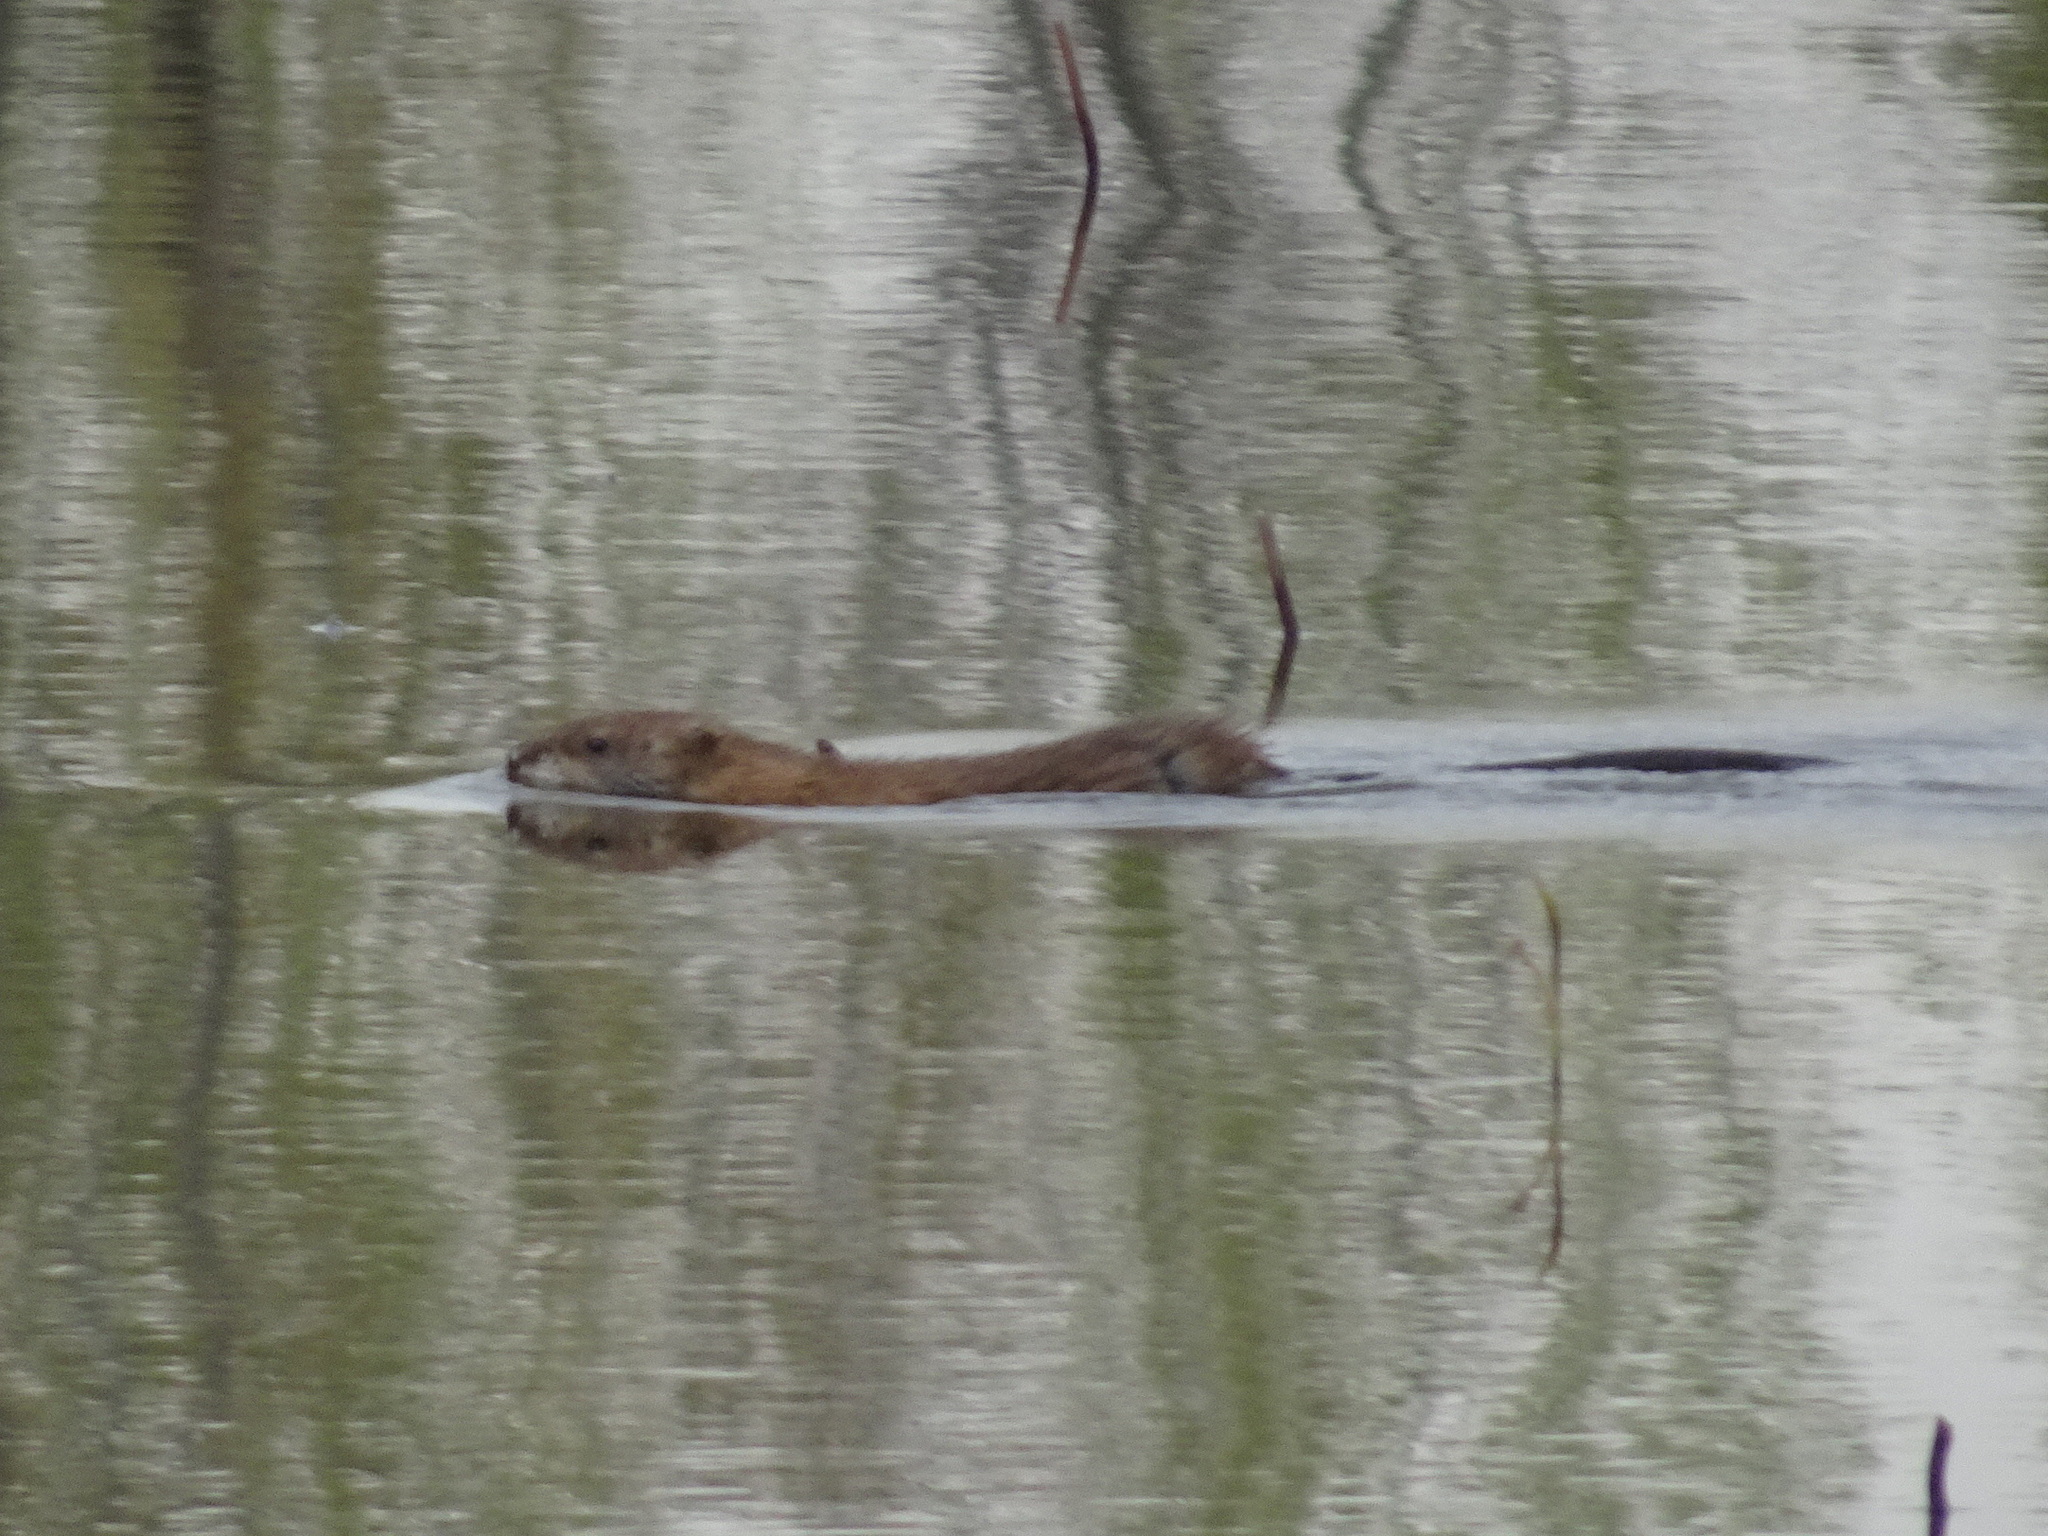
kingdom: Animalia
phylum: Chordata
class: Mammalia
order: Rodentia
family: Cricetidae
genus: Ondatra
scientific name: Ondatra zibethicus
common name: Muskrat
